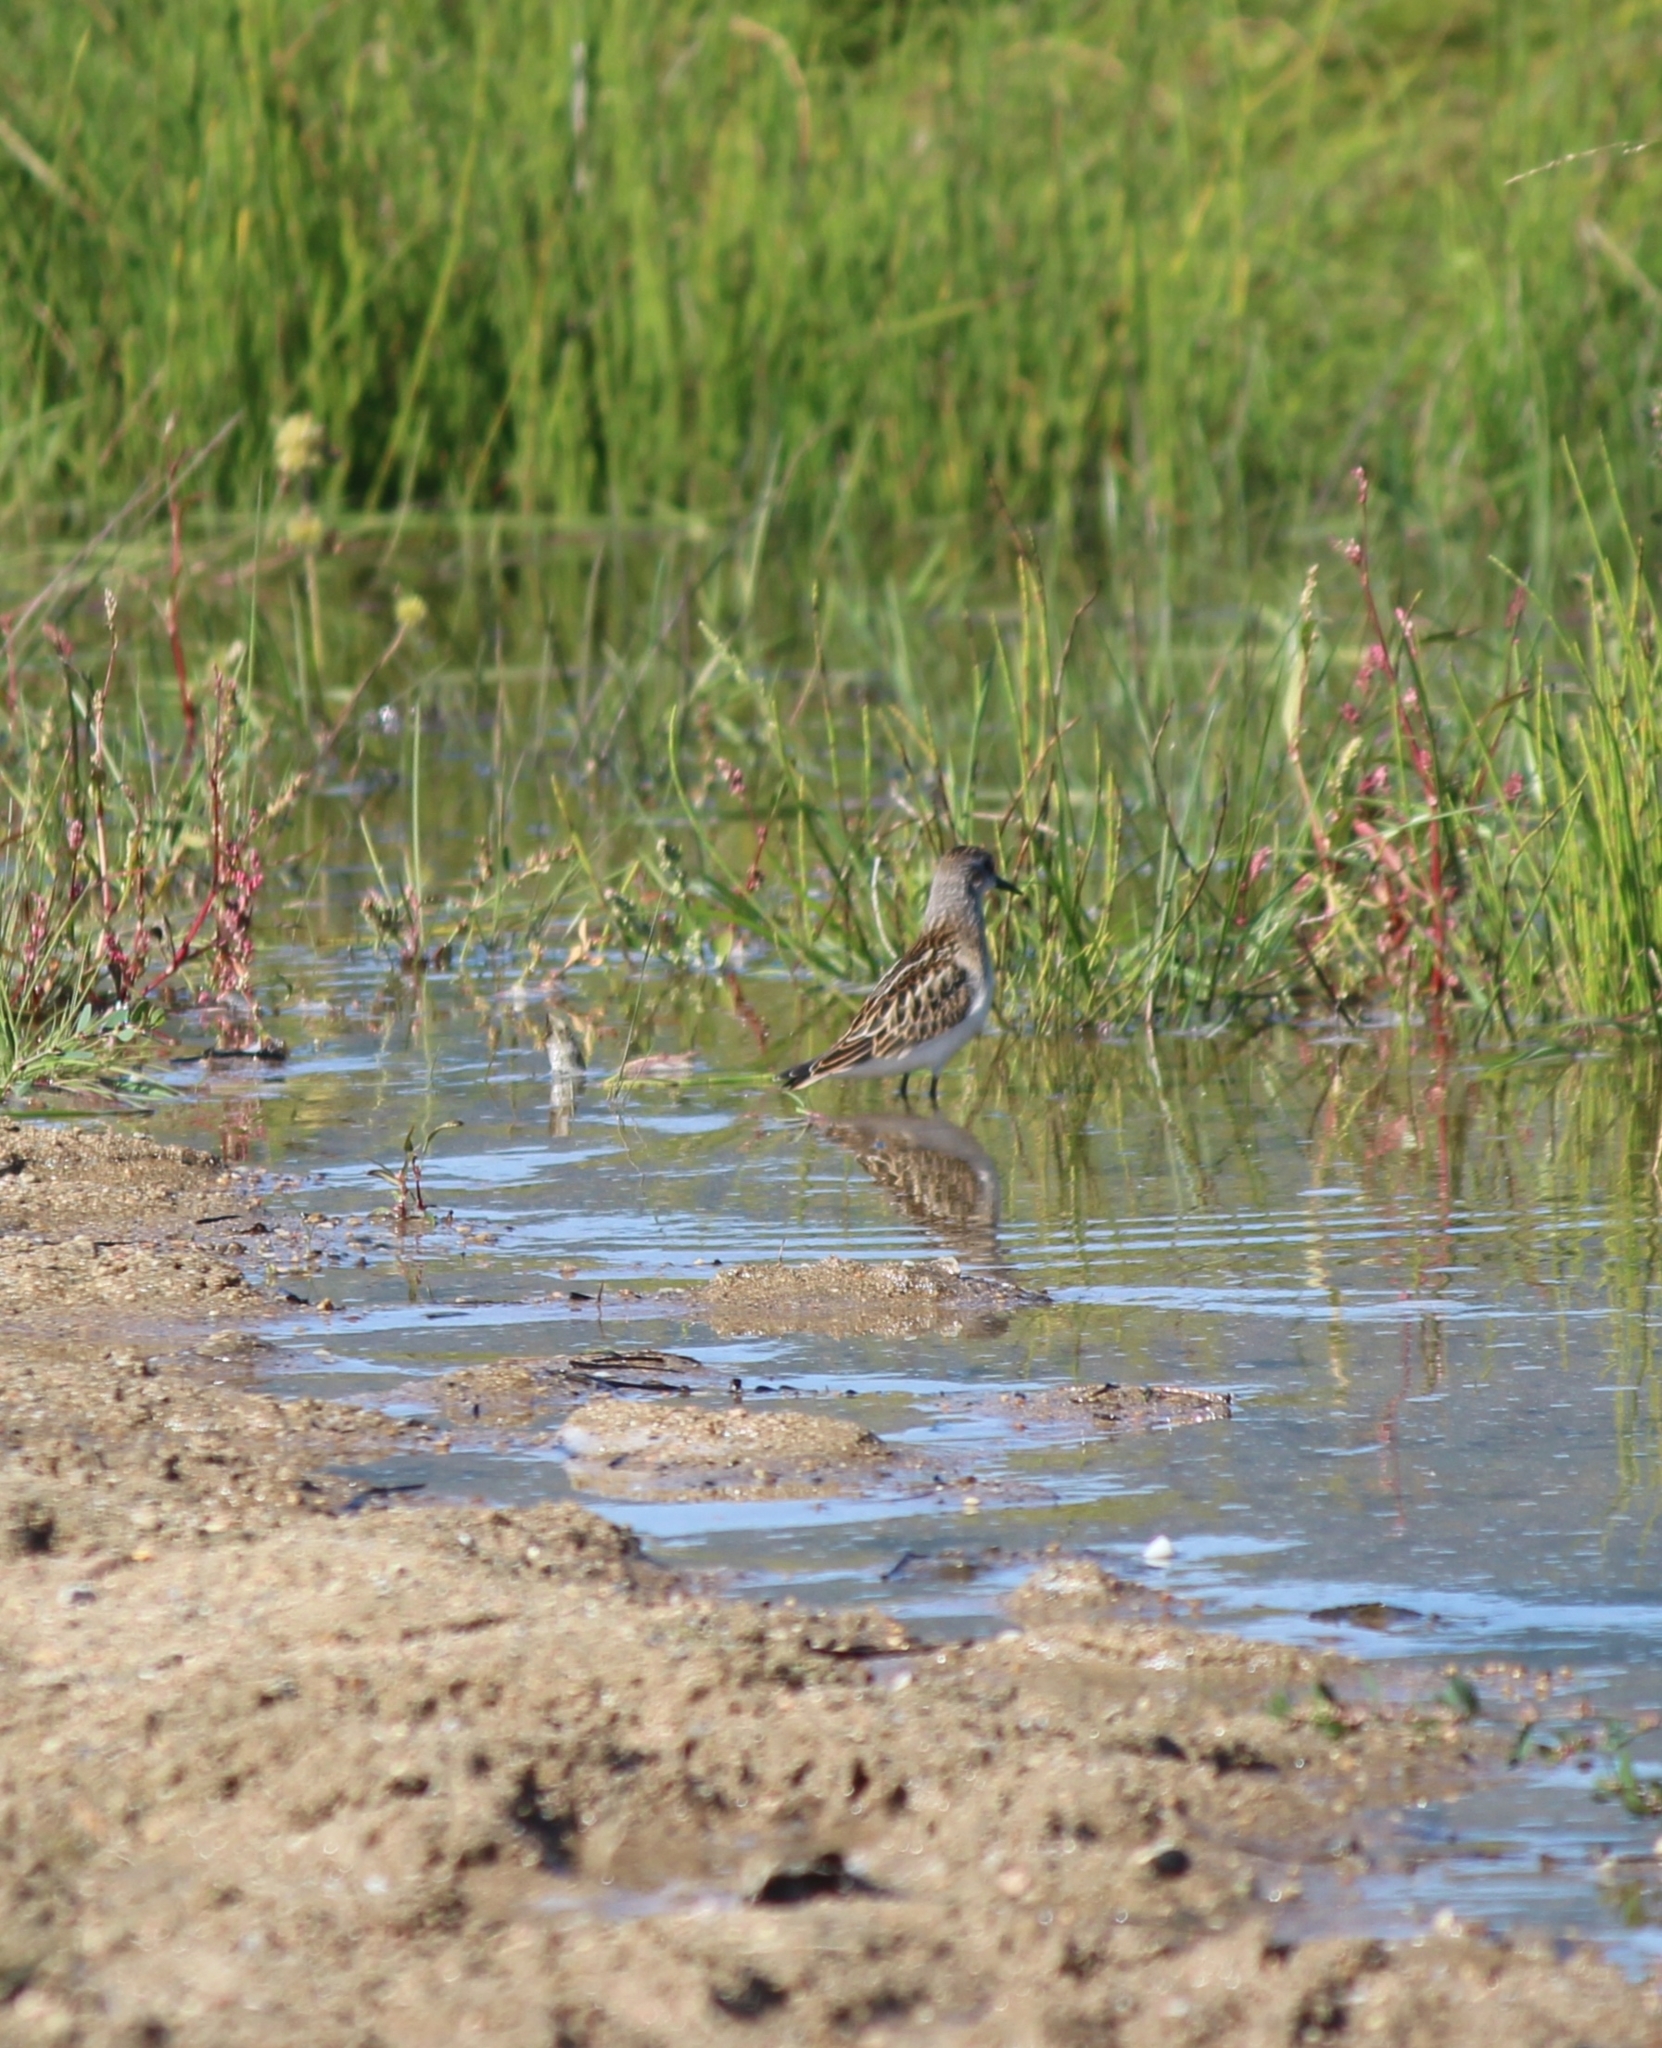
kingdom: Animalia
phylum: Chordata
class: Aves
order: Charadriiformes
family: Scolopacidae
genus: Calidris
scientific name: Calidris minuta
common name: Little stint
